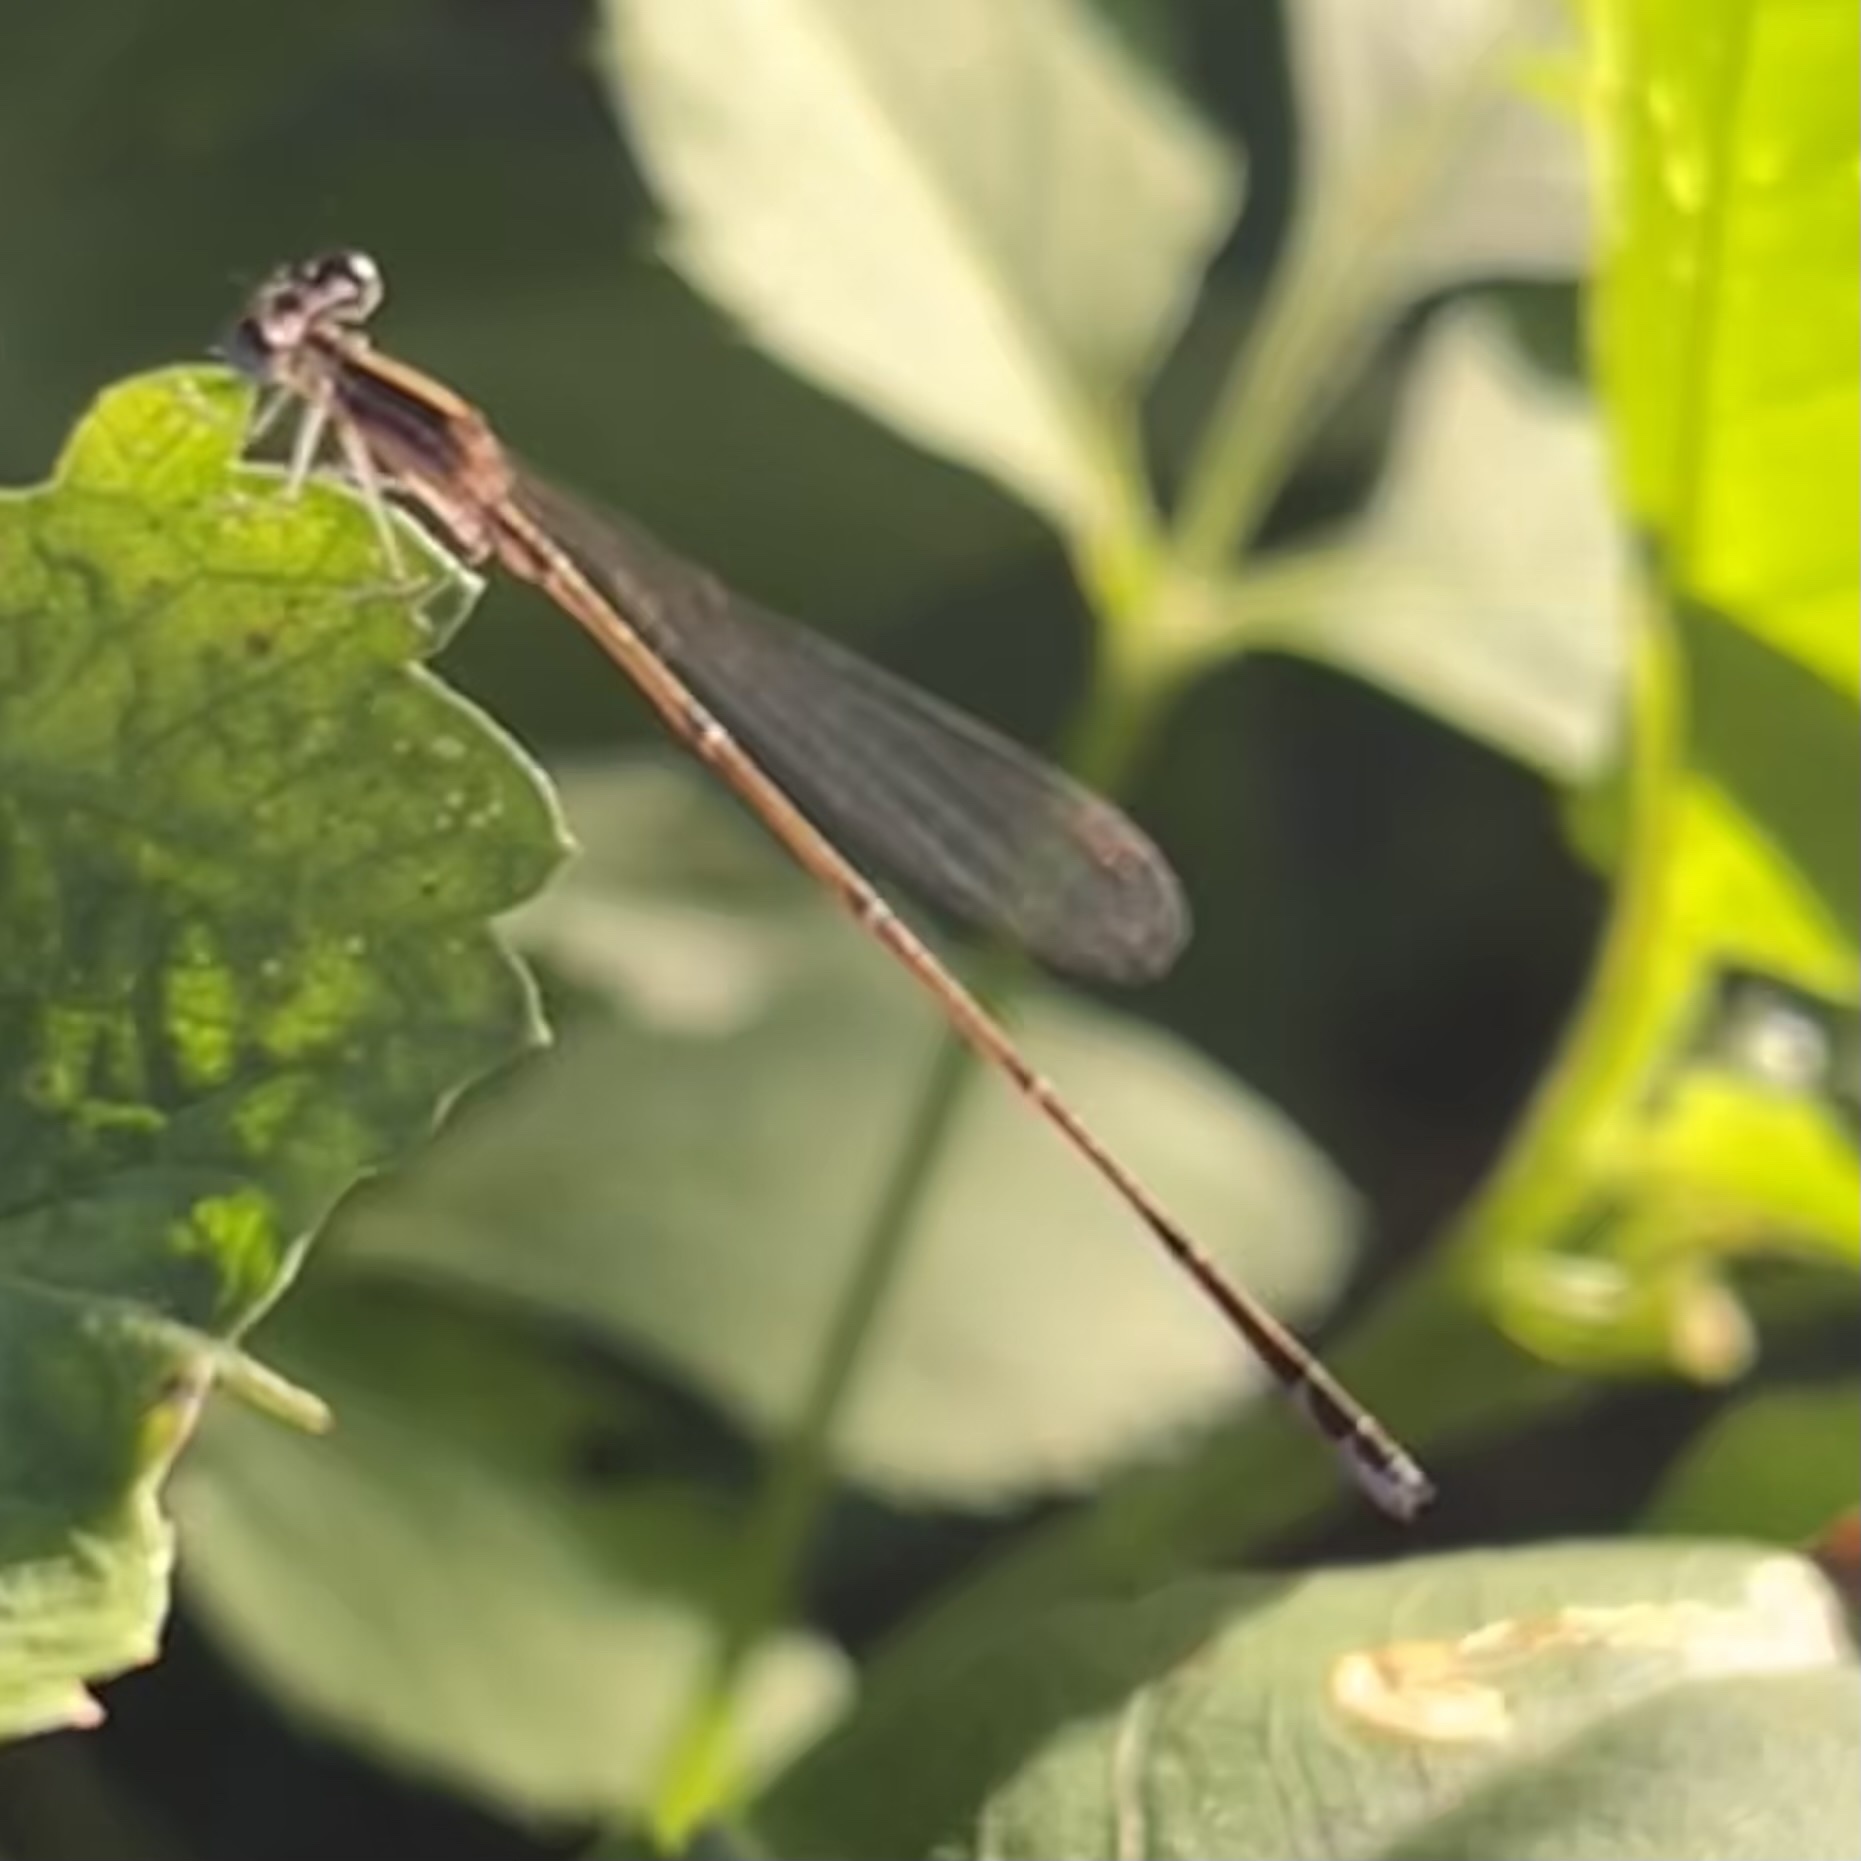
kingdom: Animalia
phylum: Arthropoda
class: Insecta
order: Odonata
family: Coenagrionidae
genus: Nehalennia
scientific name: Nehalennia pallidula
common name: Everglades sprite
